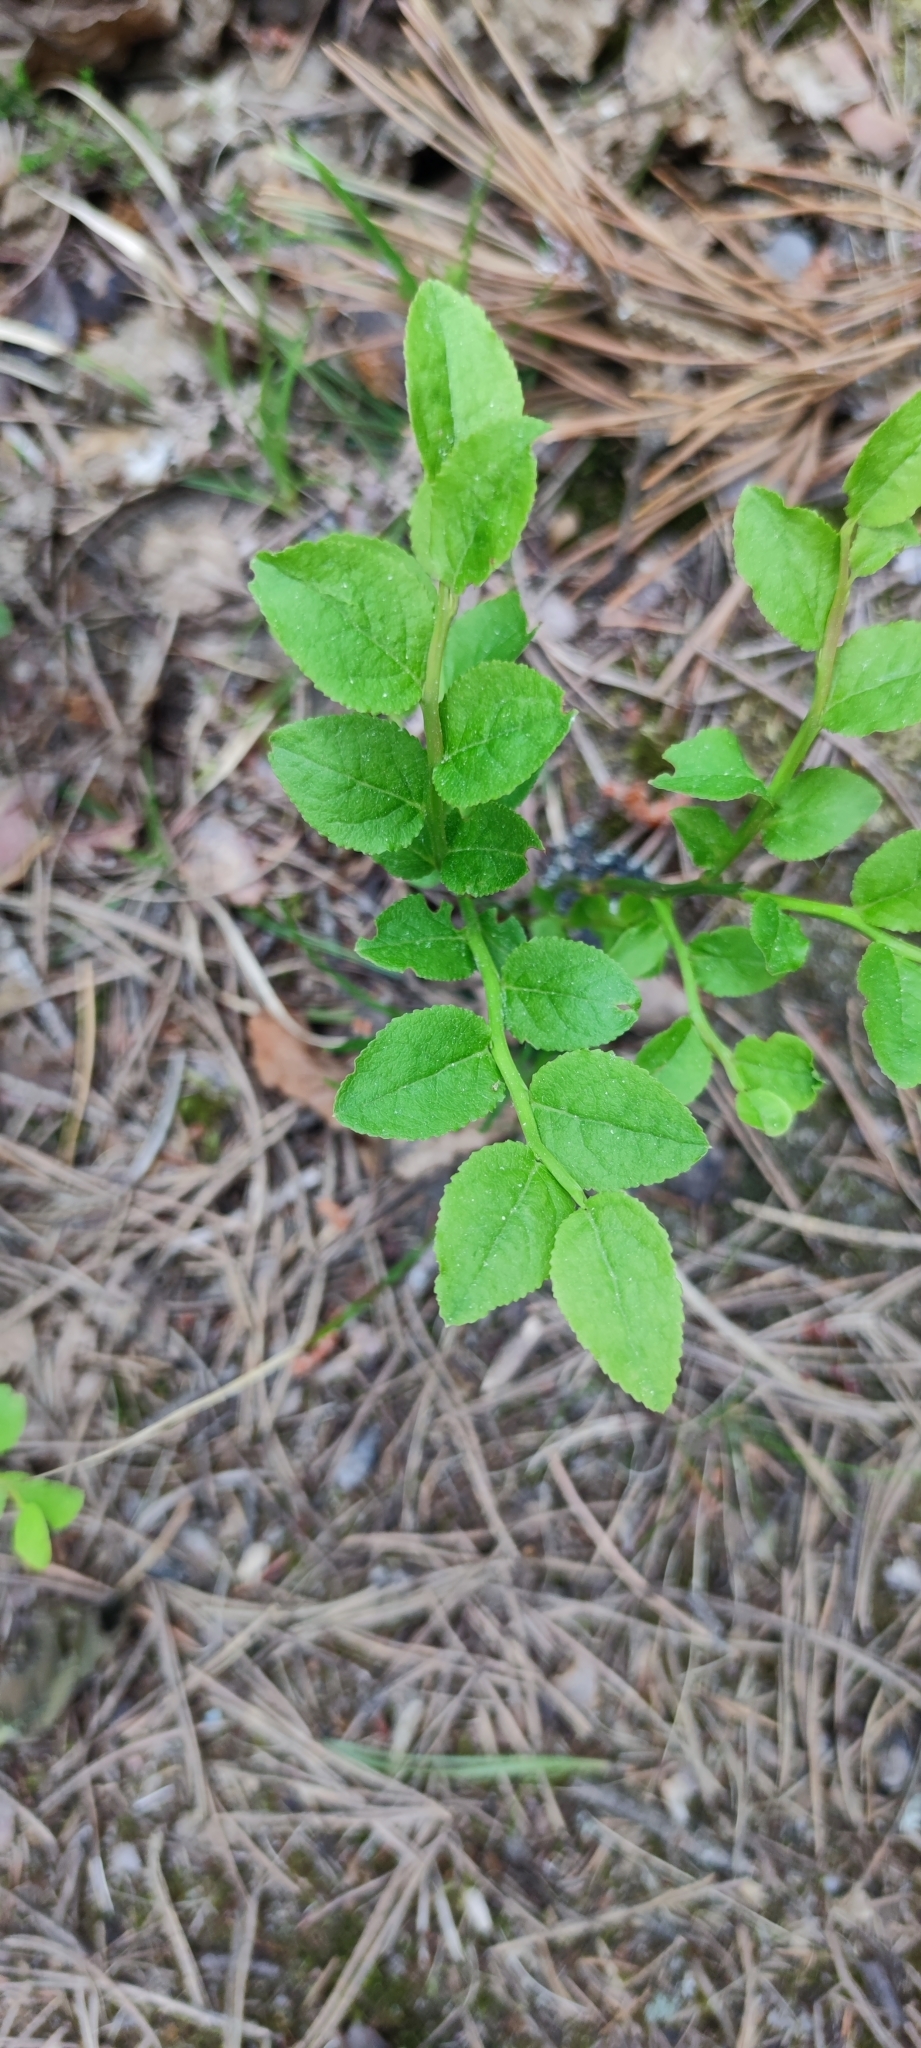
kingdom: Plantae
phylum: Tracheophyta
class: Magnoliopsida
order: Ericales
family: Ericaceae
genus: Vaccinium
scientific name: Vaccinium myrtillus
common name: Bilberry
